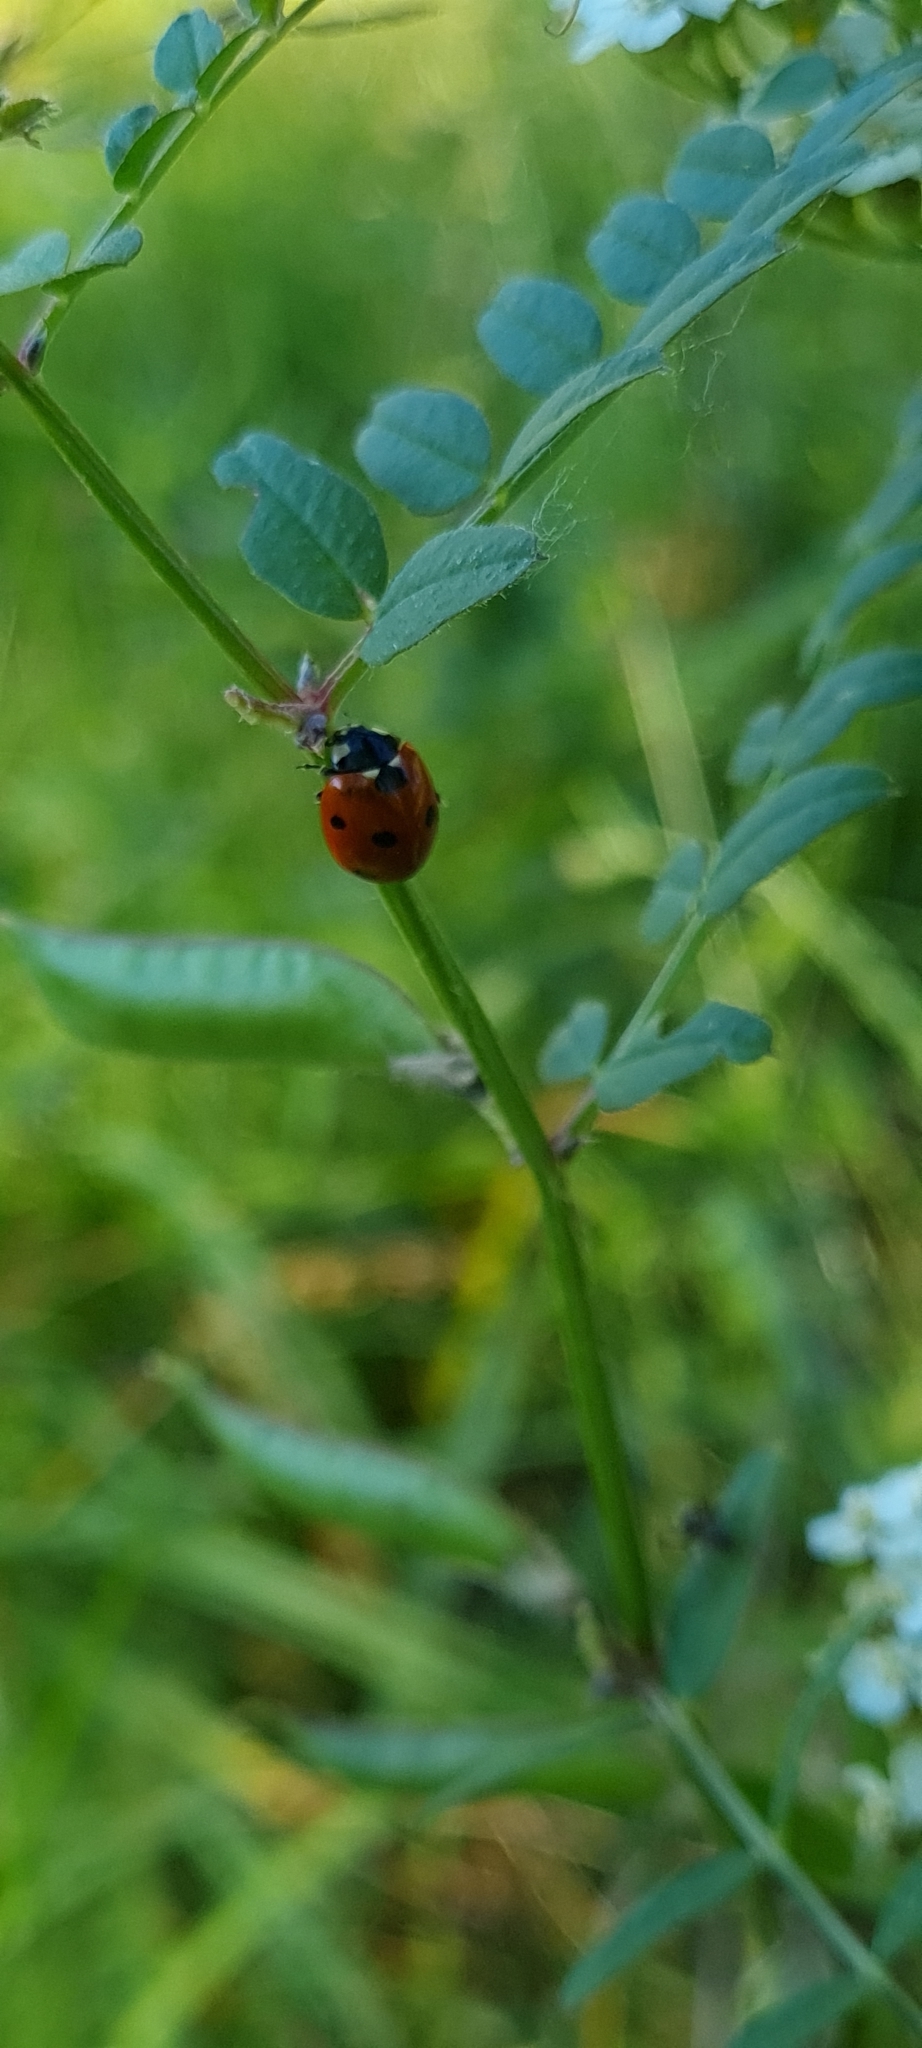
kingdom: Animalia
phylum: Arthropoda
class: Insecta
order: Coleoptera
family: Coccinellidae
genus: Coccinella
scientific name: Coccinella septempunctata
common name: Sevenspotted lady beetle
